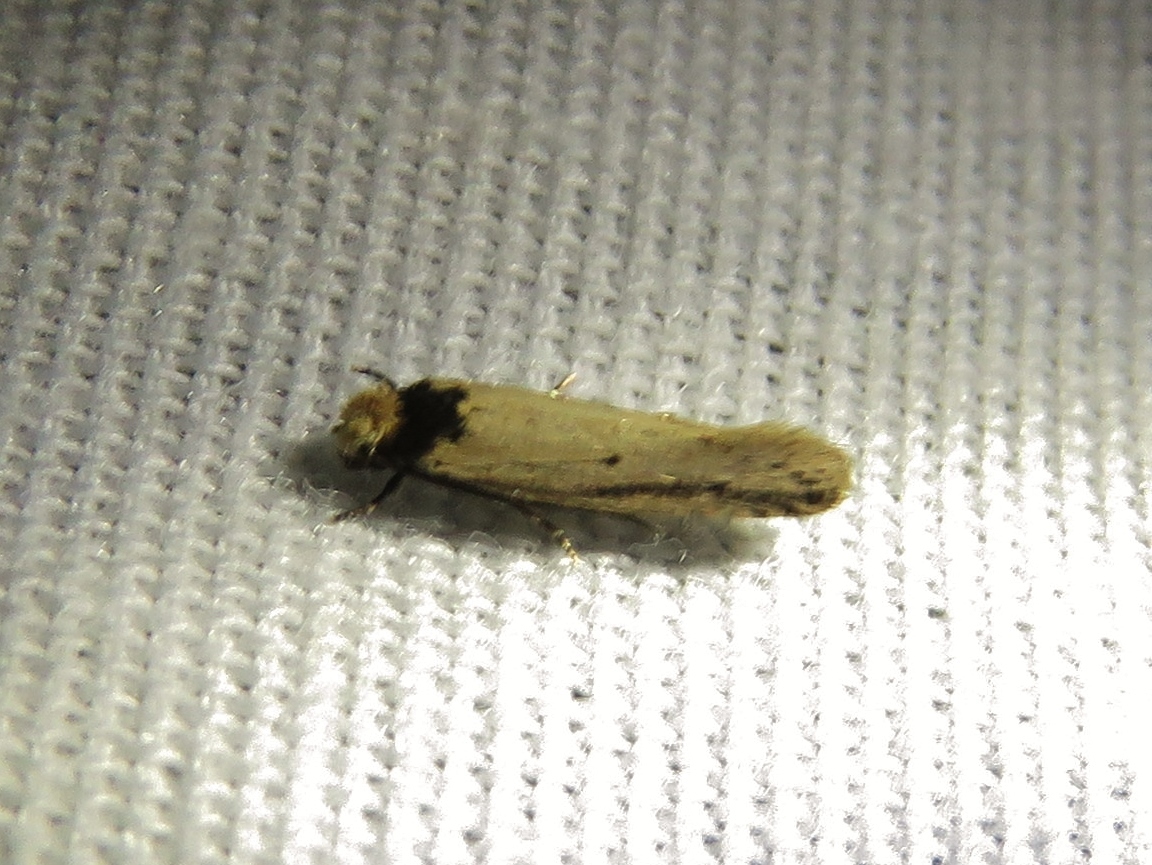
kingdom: Animalia
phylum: Arthropoda
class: Insecta
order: Lepidoptera
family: Tineidae
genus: Tinea
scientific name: Tinea apicimaculella
